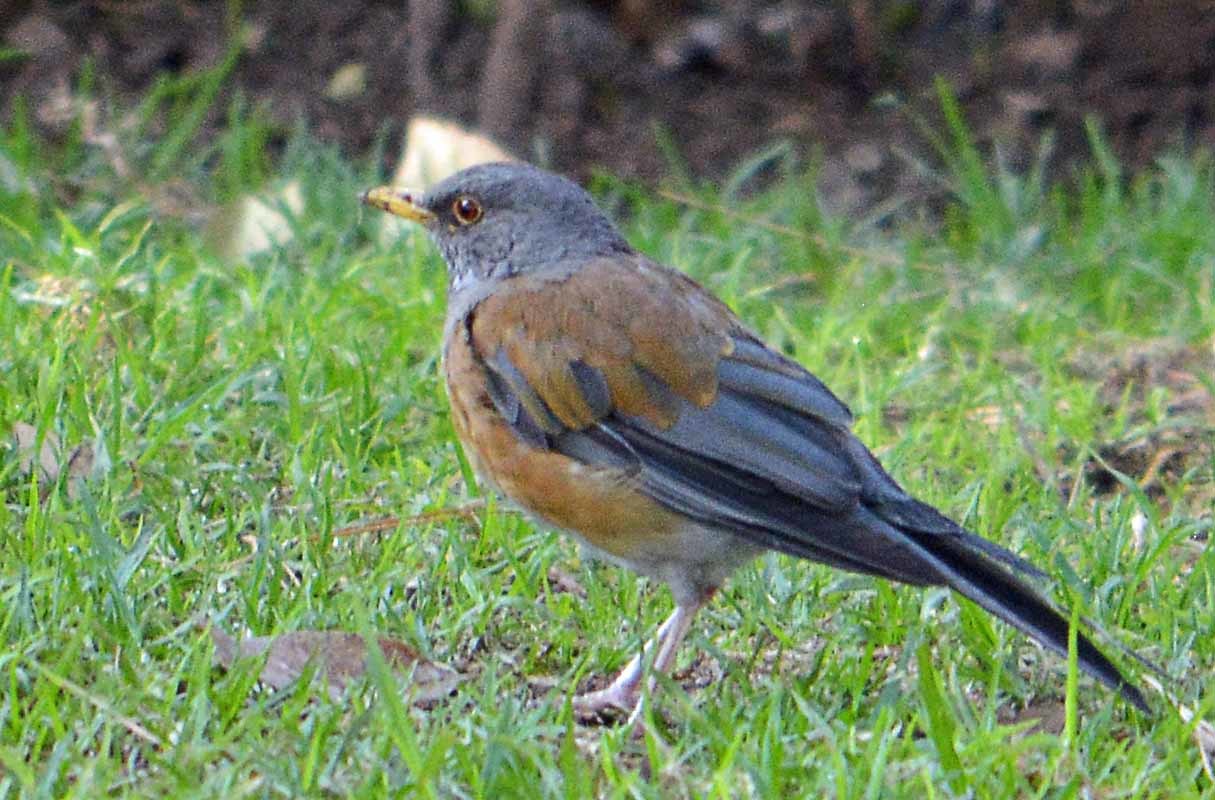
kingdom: Animalia
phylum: Chordata
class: Aves
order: Passeriformes
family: Turdidae
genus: Turdus
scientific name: Turdus rufopalliatus
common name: Rufous-backed robin
